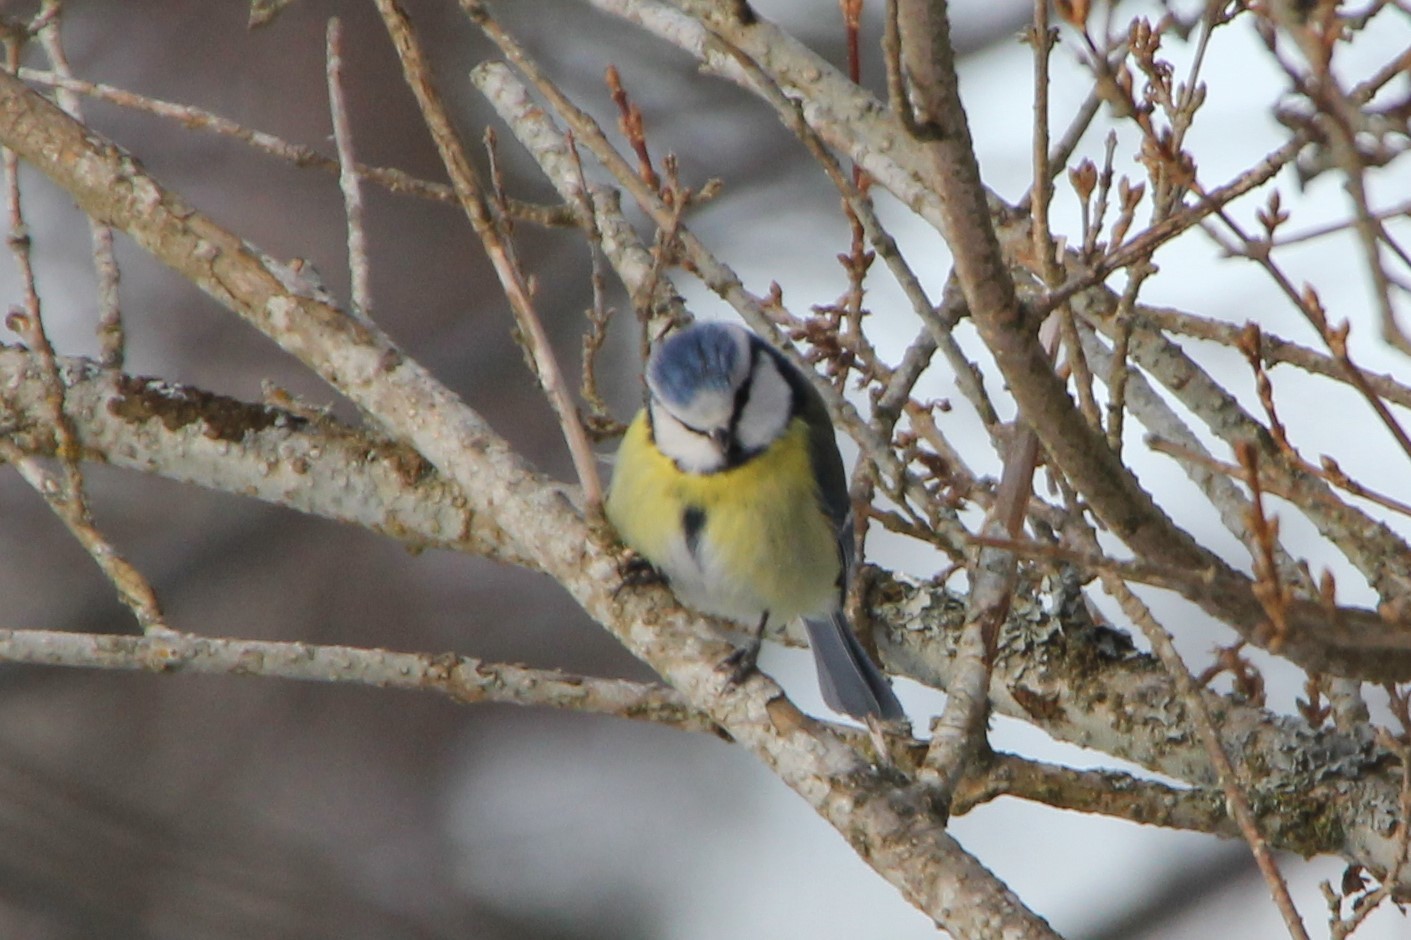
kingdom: Animalia
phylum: Chordata
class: Aves
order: Passeriformes
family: Paridae
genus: Cyanistes
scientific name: Cyanistes caeruleus
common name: Eurasian blue tit
